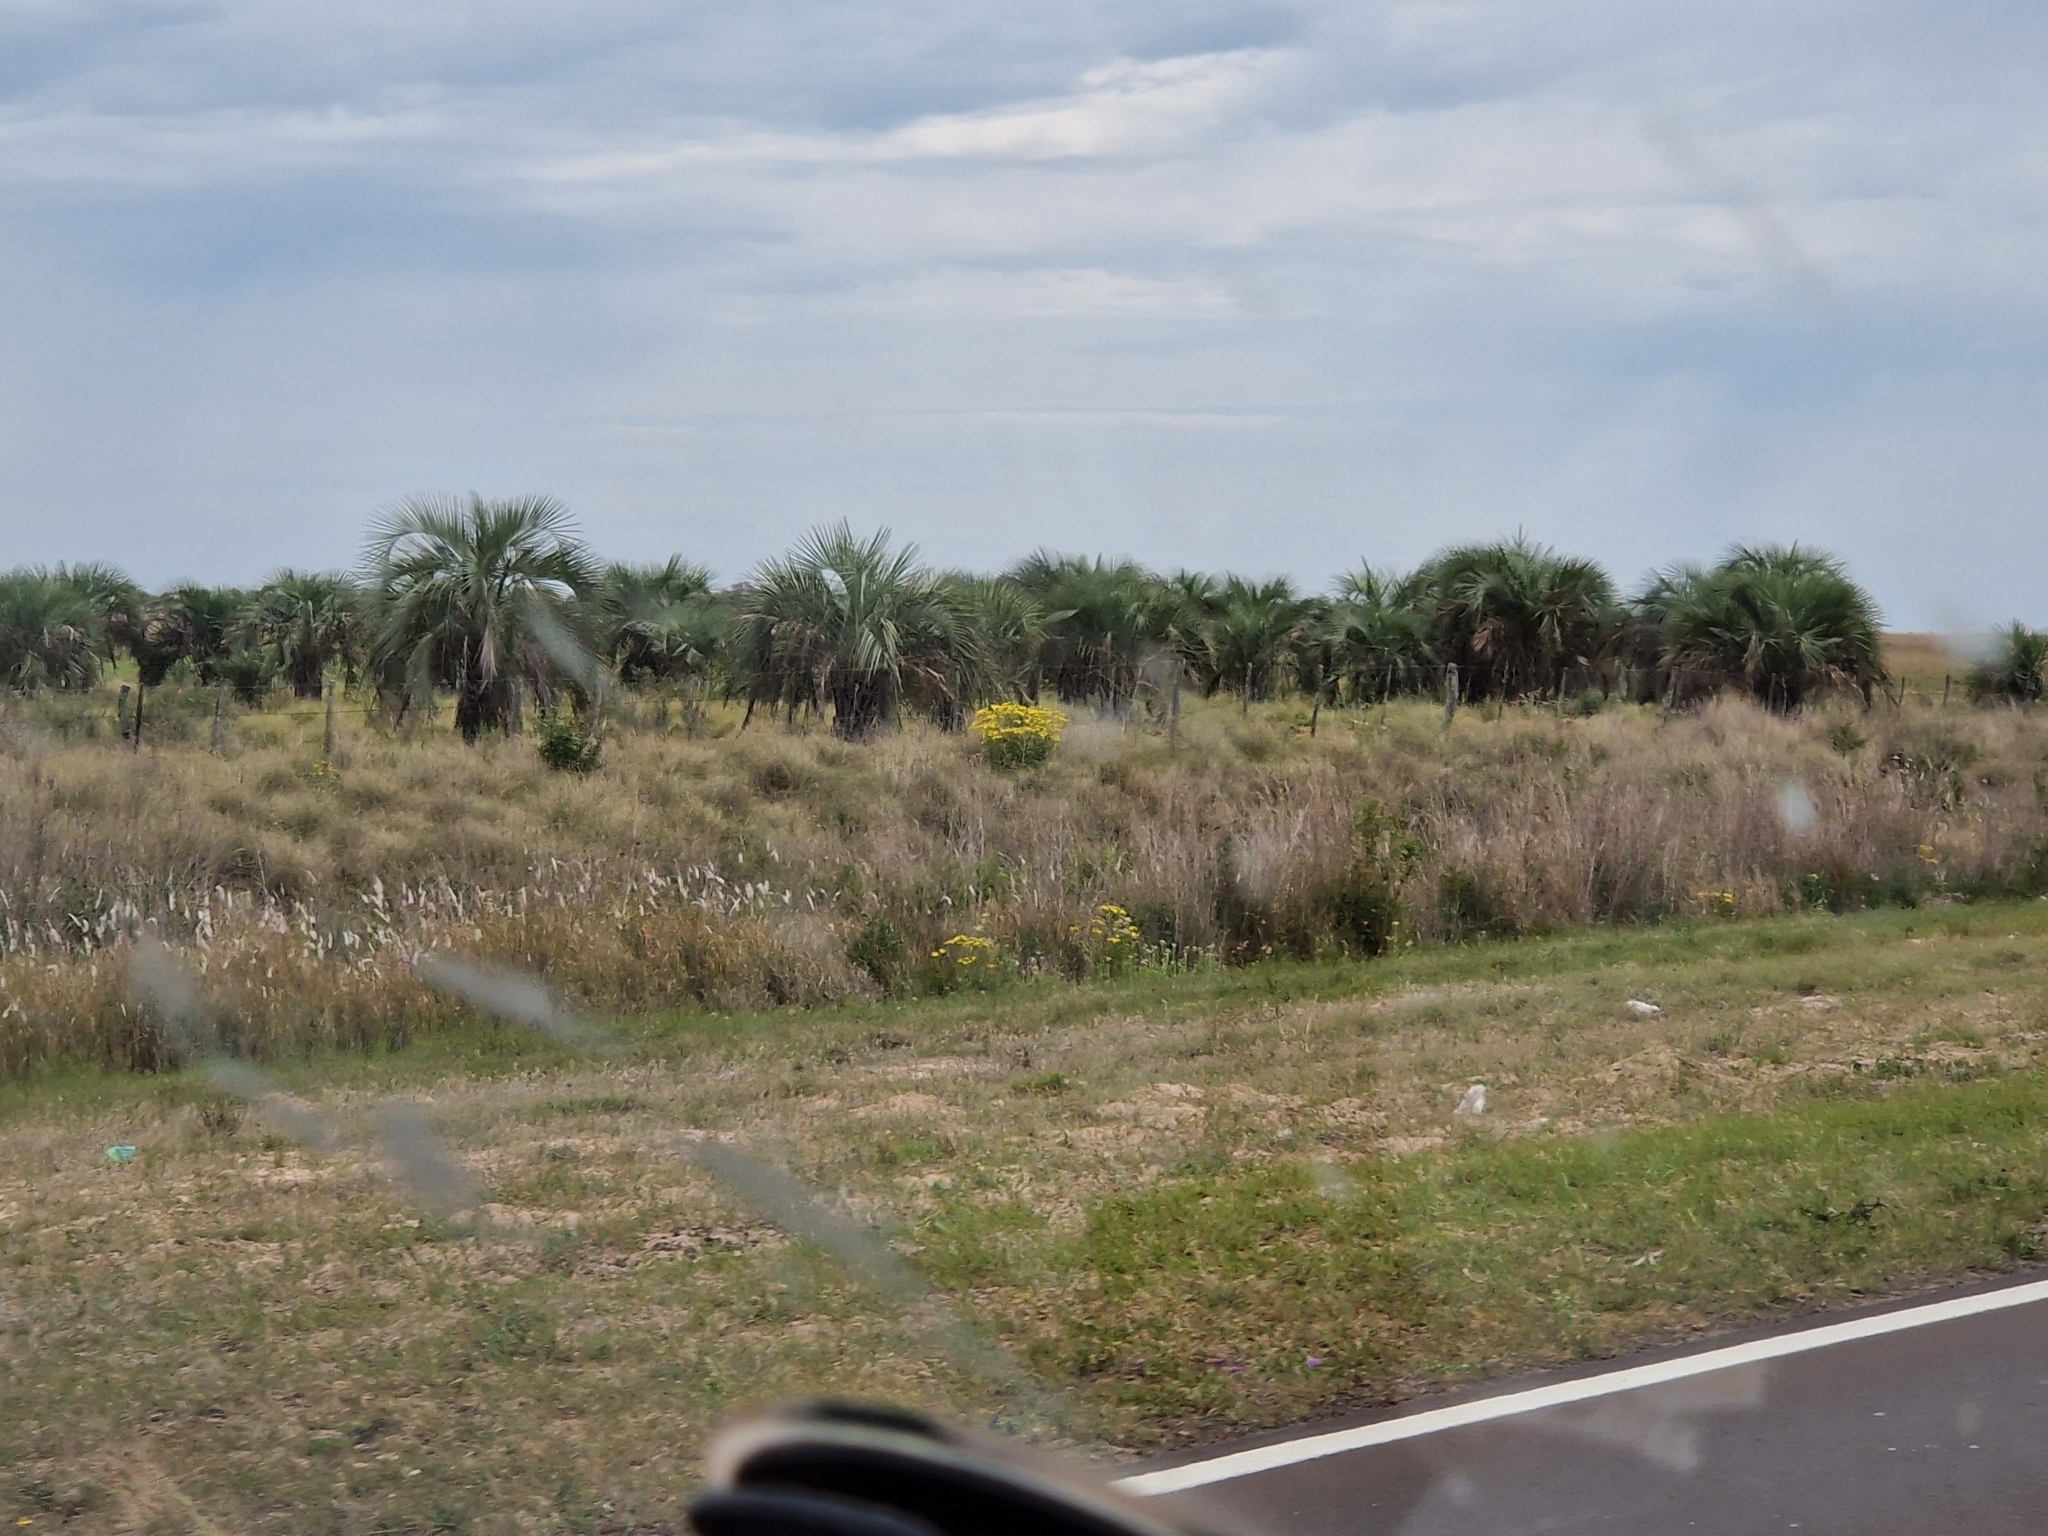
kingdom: Plantae
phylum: Tracheophyta
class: Liliopsida
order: Arecales
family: Arecaceae
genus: Butia
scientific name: Butia yatay
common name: Yatay palm
